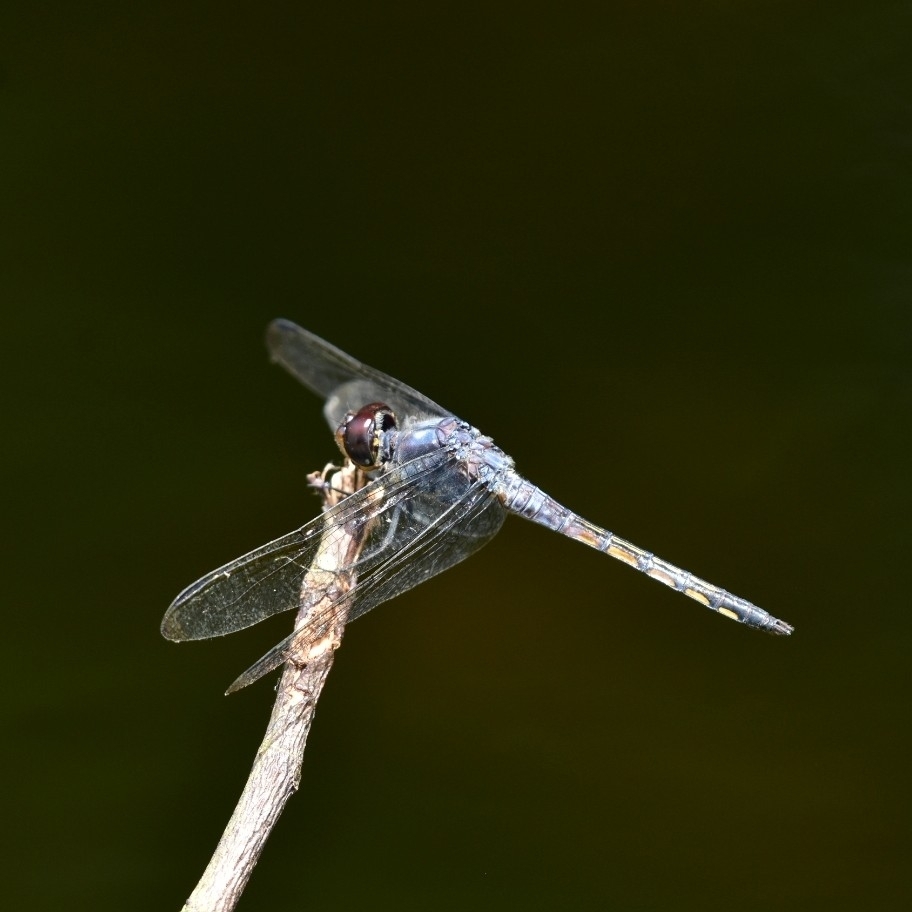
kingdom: Animalia
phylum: Arthropoda
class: Insecta
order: Odonata
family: Libellulidae
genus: Potamarcha
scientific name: Potamarcha congener
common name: Blue chaser
